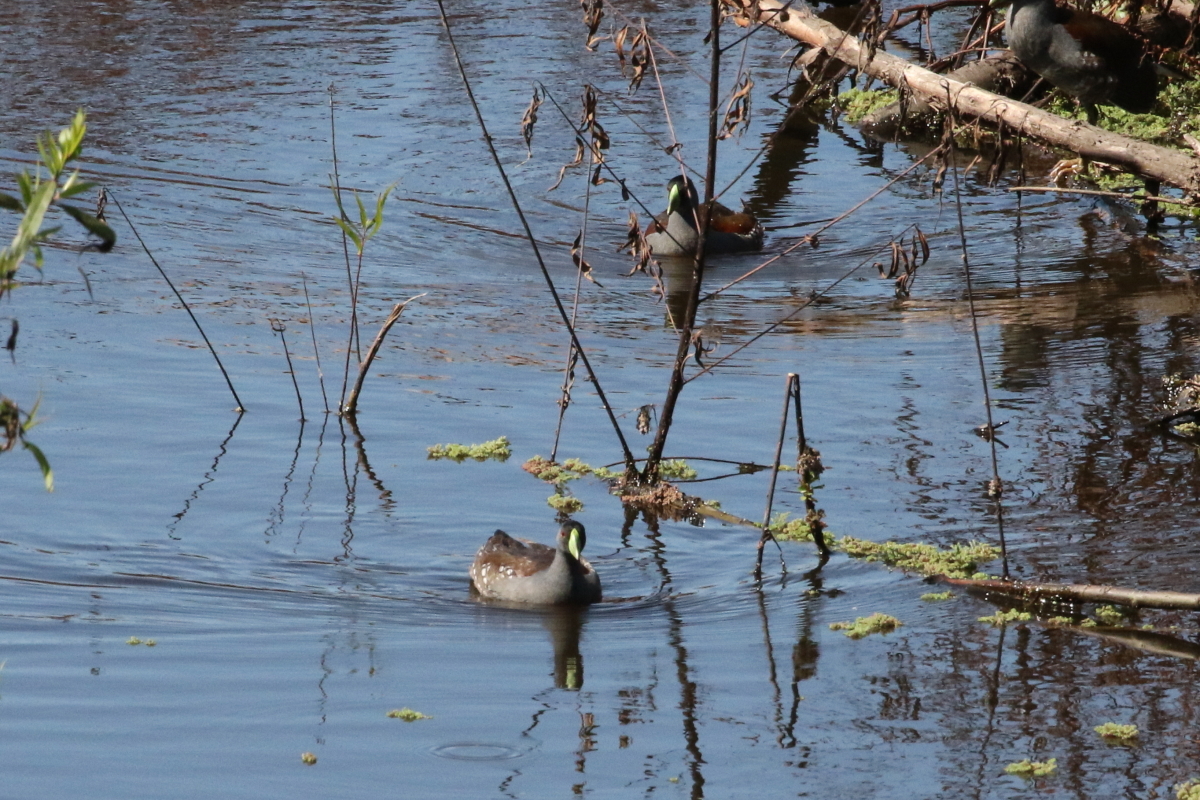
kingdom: Animalia
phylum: Chordata
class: Aves
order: Gruiformes
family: Rallidae
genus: Gallinula
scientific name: Gallinula melanops
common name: Spot-flanked gallinule
